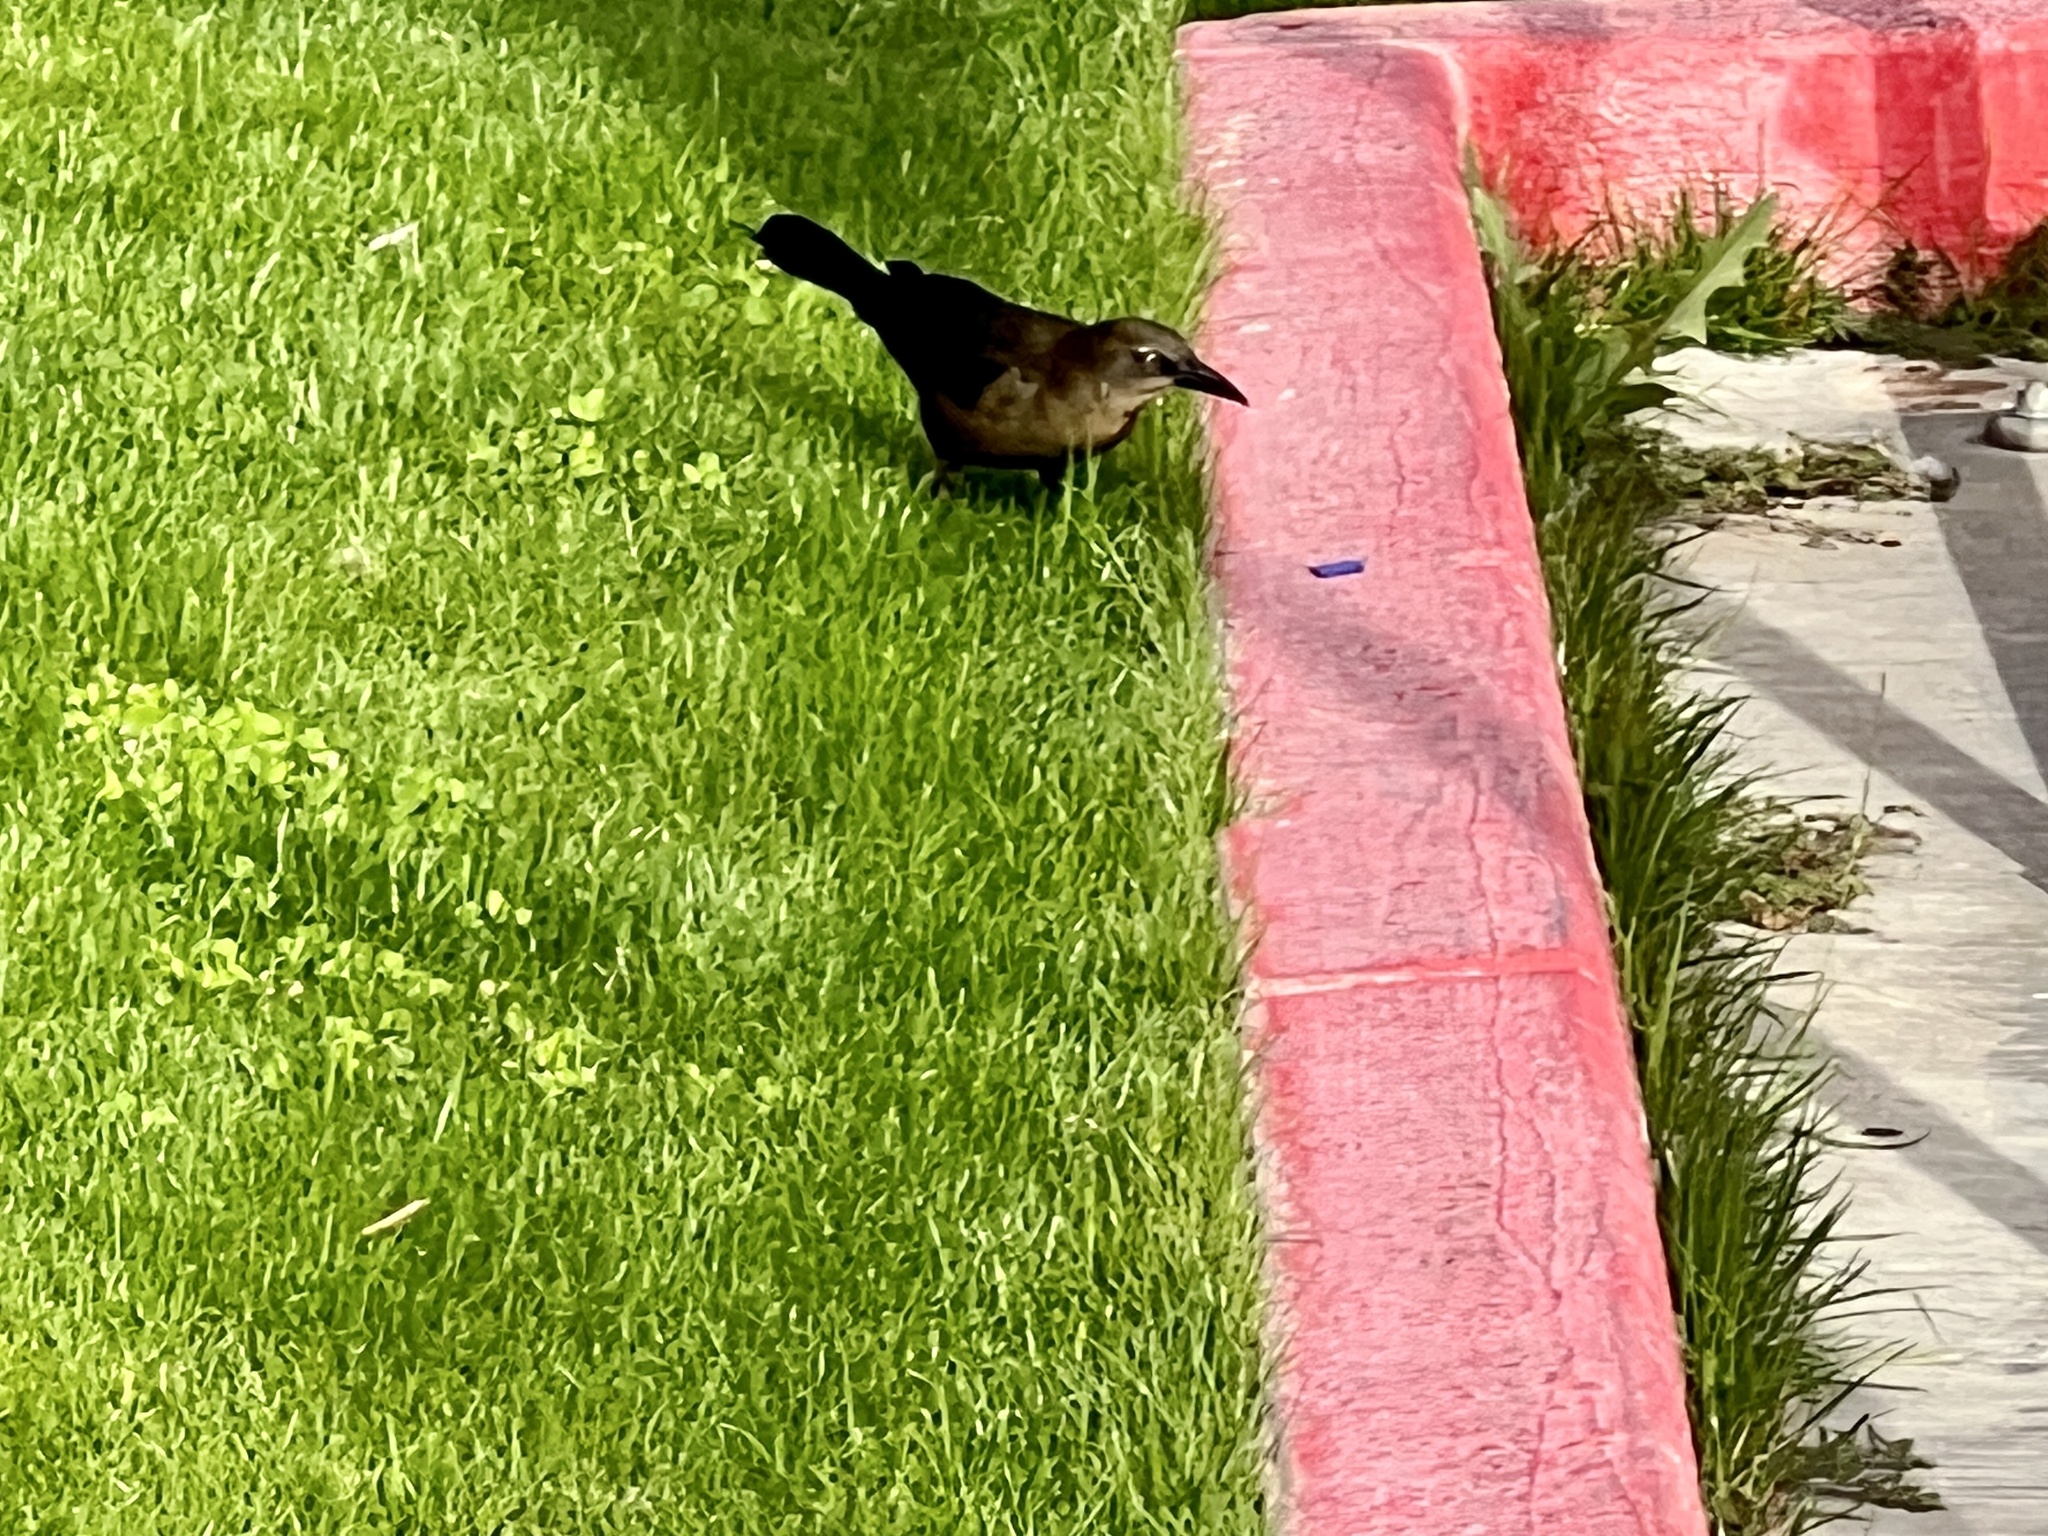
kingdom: Animalia
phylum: Chordata
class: Aves
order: Passeriformes
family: Icteridae
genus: Quiscalus
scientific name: Quiscalus mexicanus
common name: Great-tailed grackle
